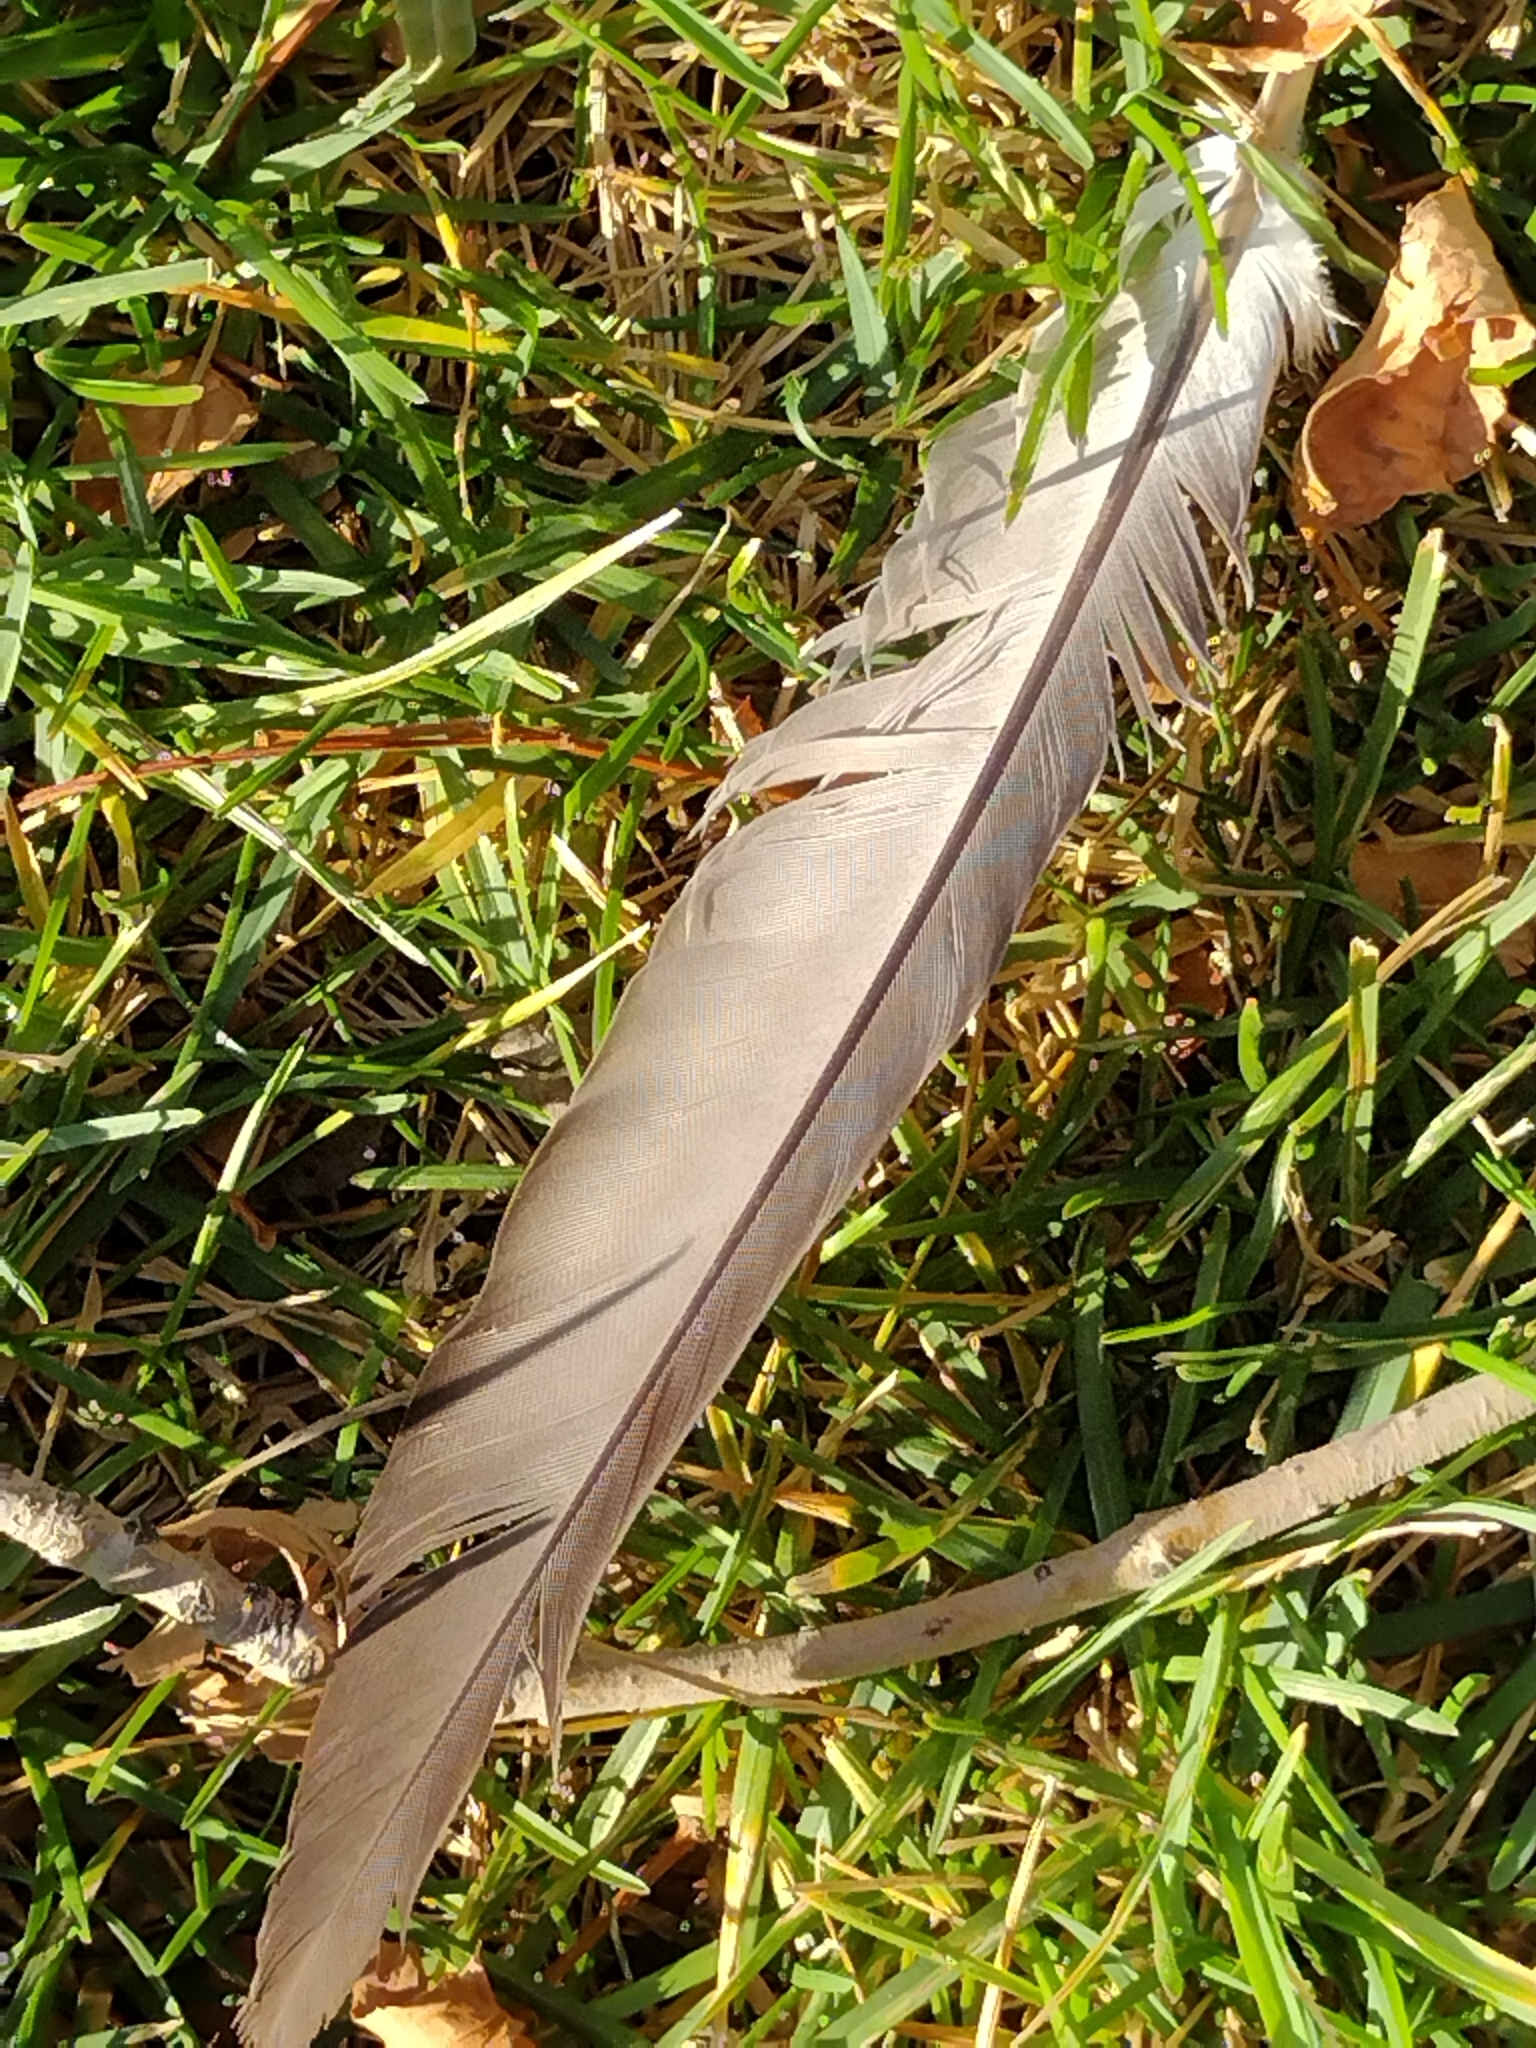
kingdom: Animalia
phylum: Chordata
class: Aves
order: Columbiformes
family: Columbidae
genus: Columba
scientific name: Columba livia
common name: Rock pigeon
